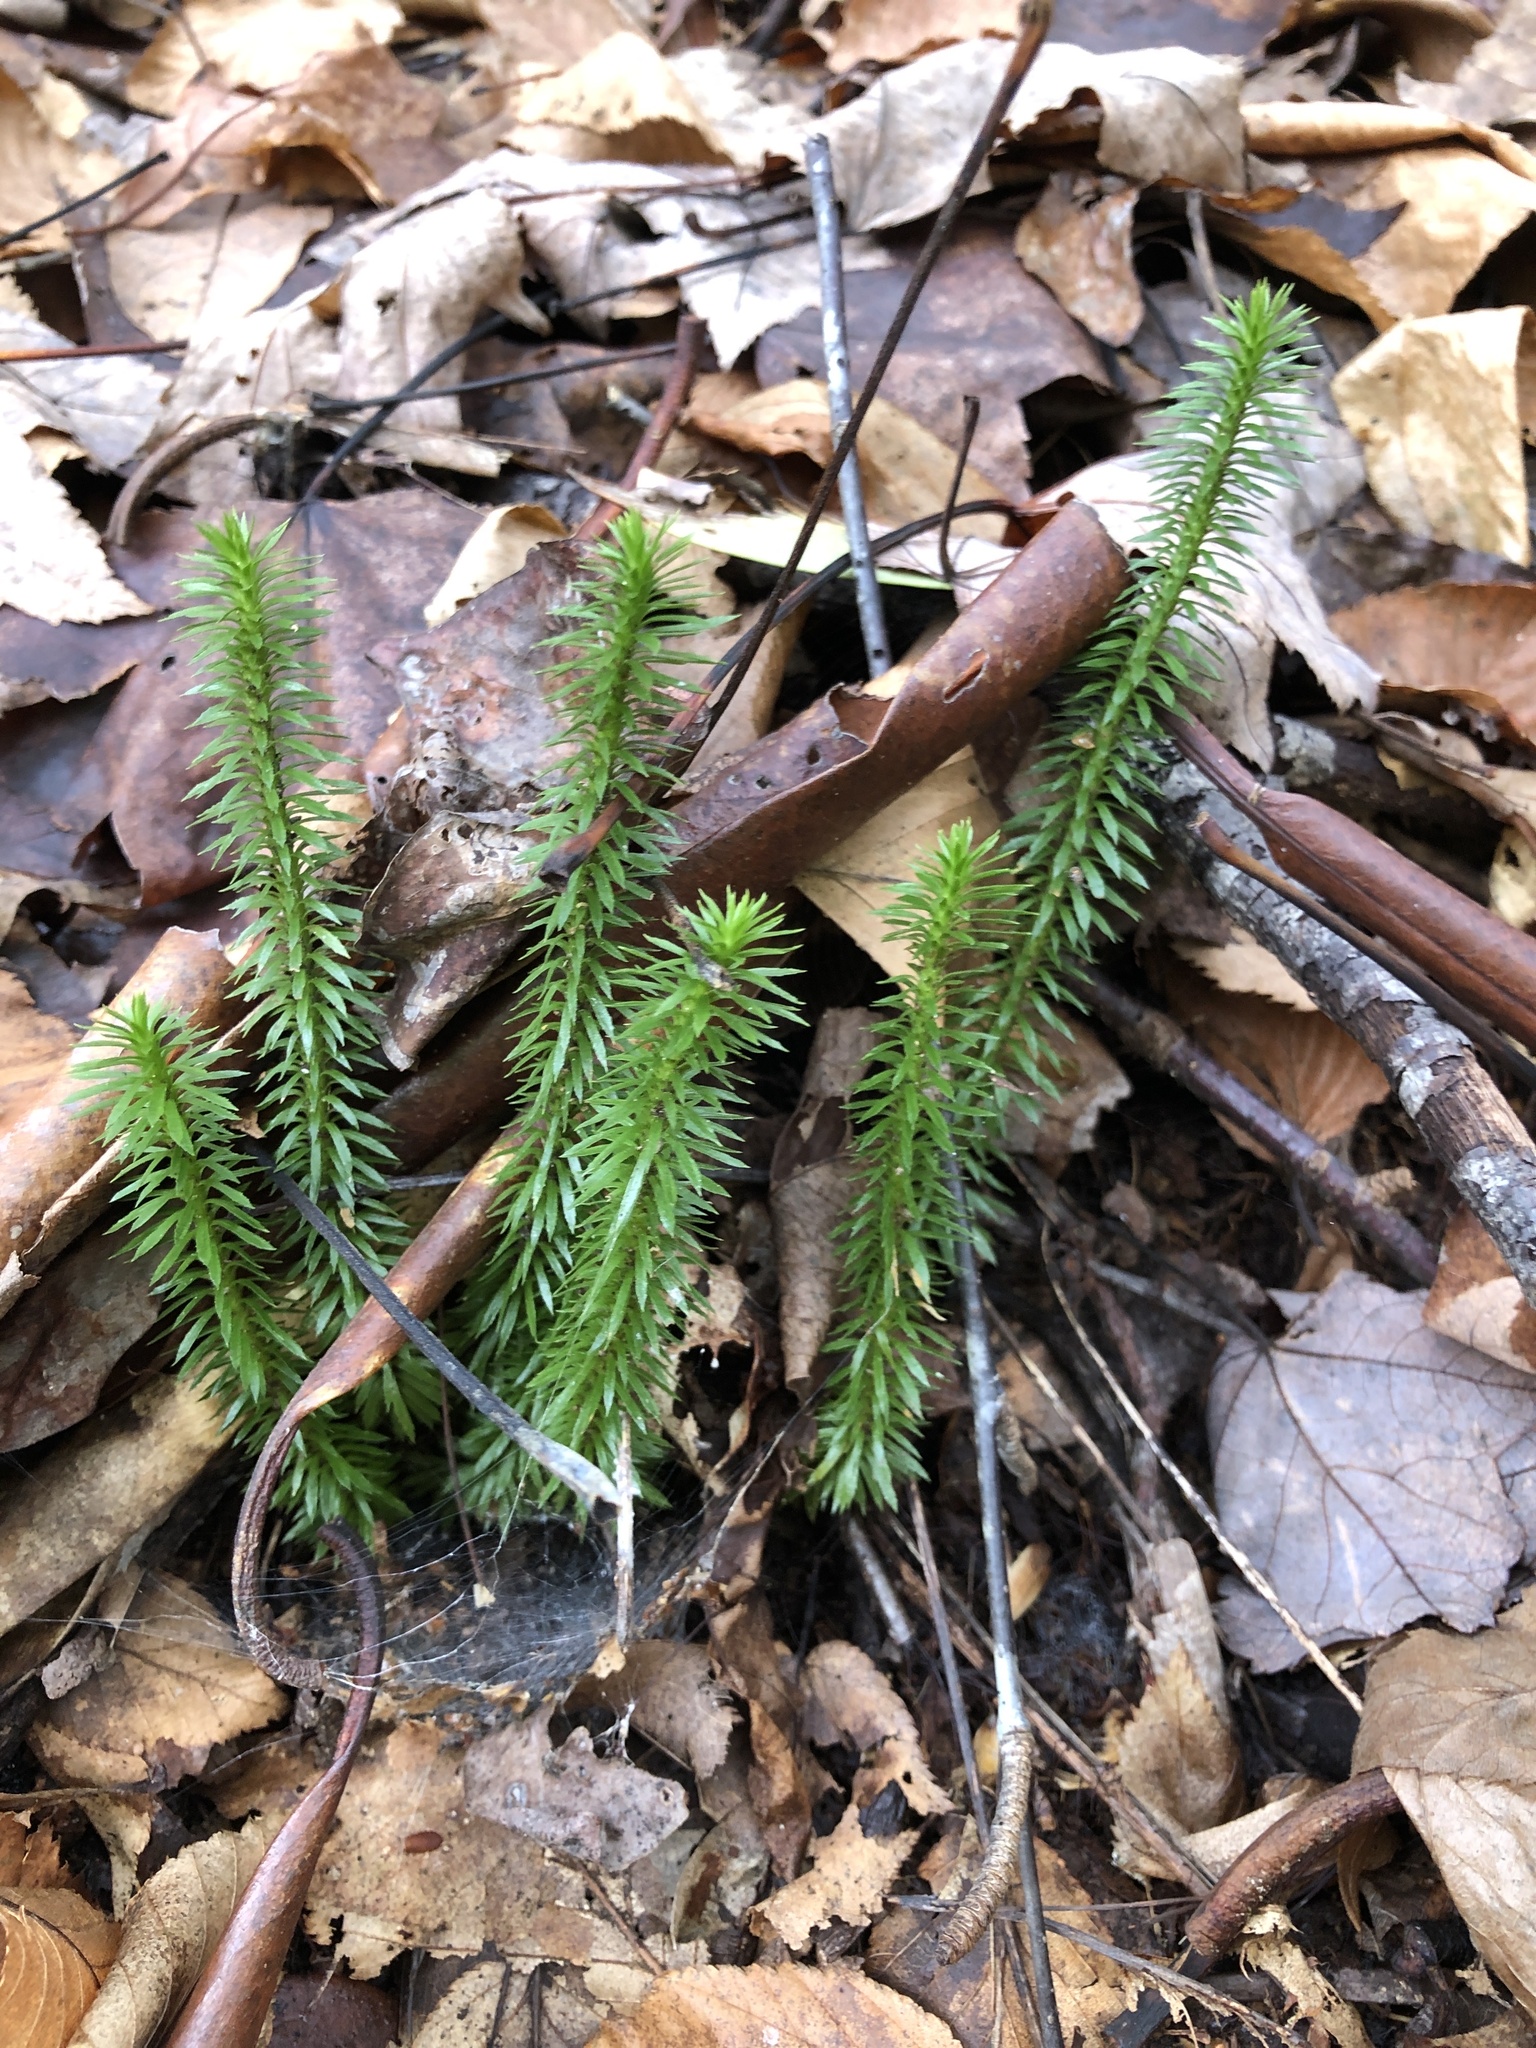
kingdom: Plantae
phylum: Tracheophyta
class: Lycopodiopsida
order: Lycopodiales
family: Lycopodiaceae
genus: Huperzia
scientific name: Huperzia lucidula
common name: Shining clubmoss
